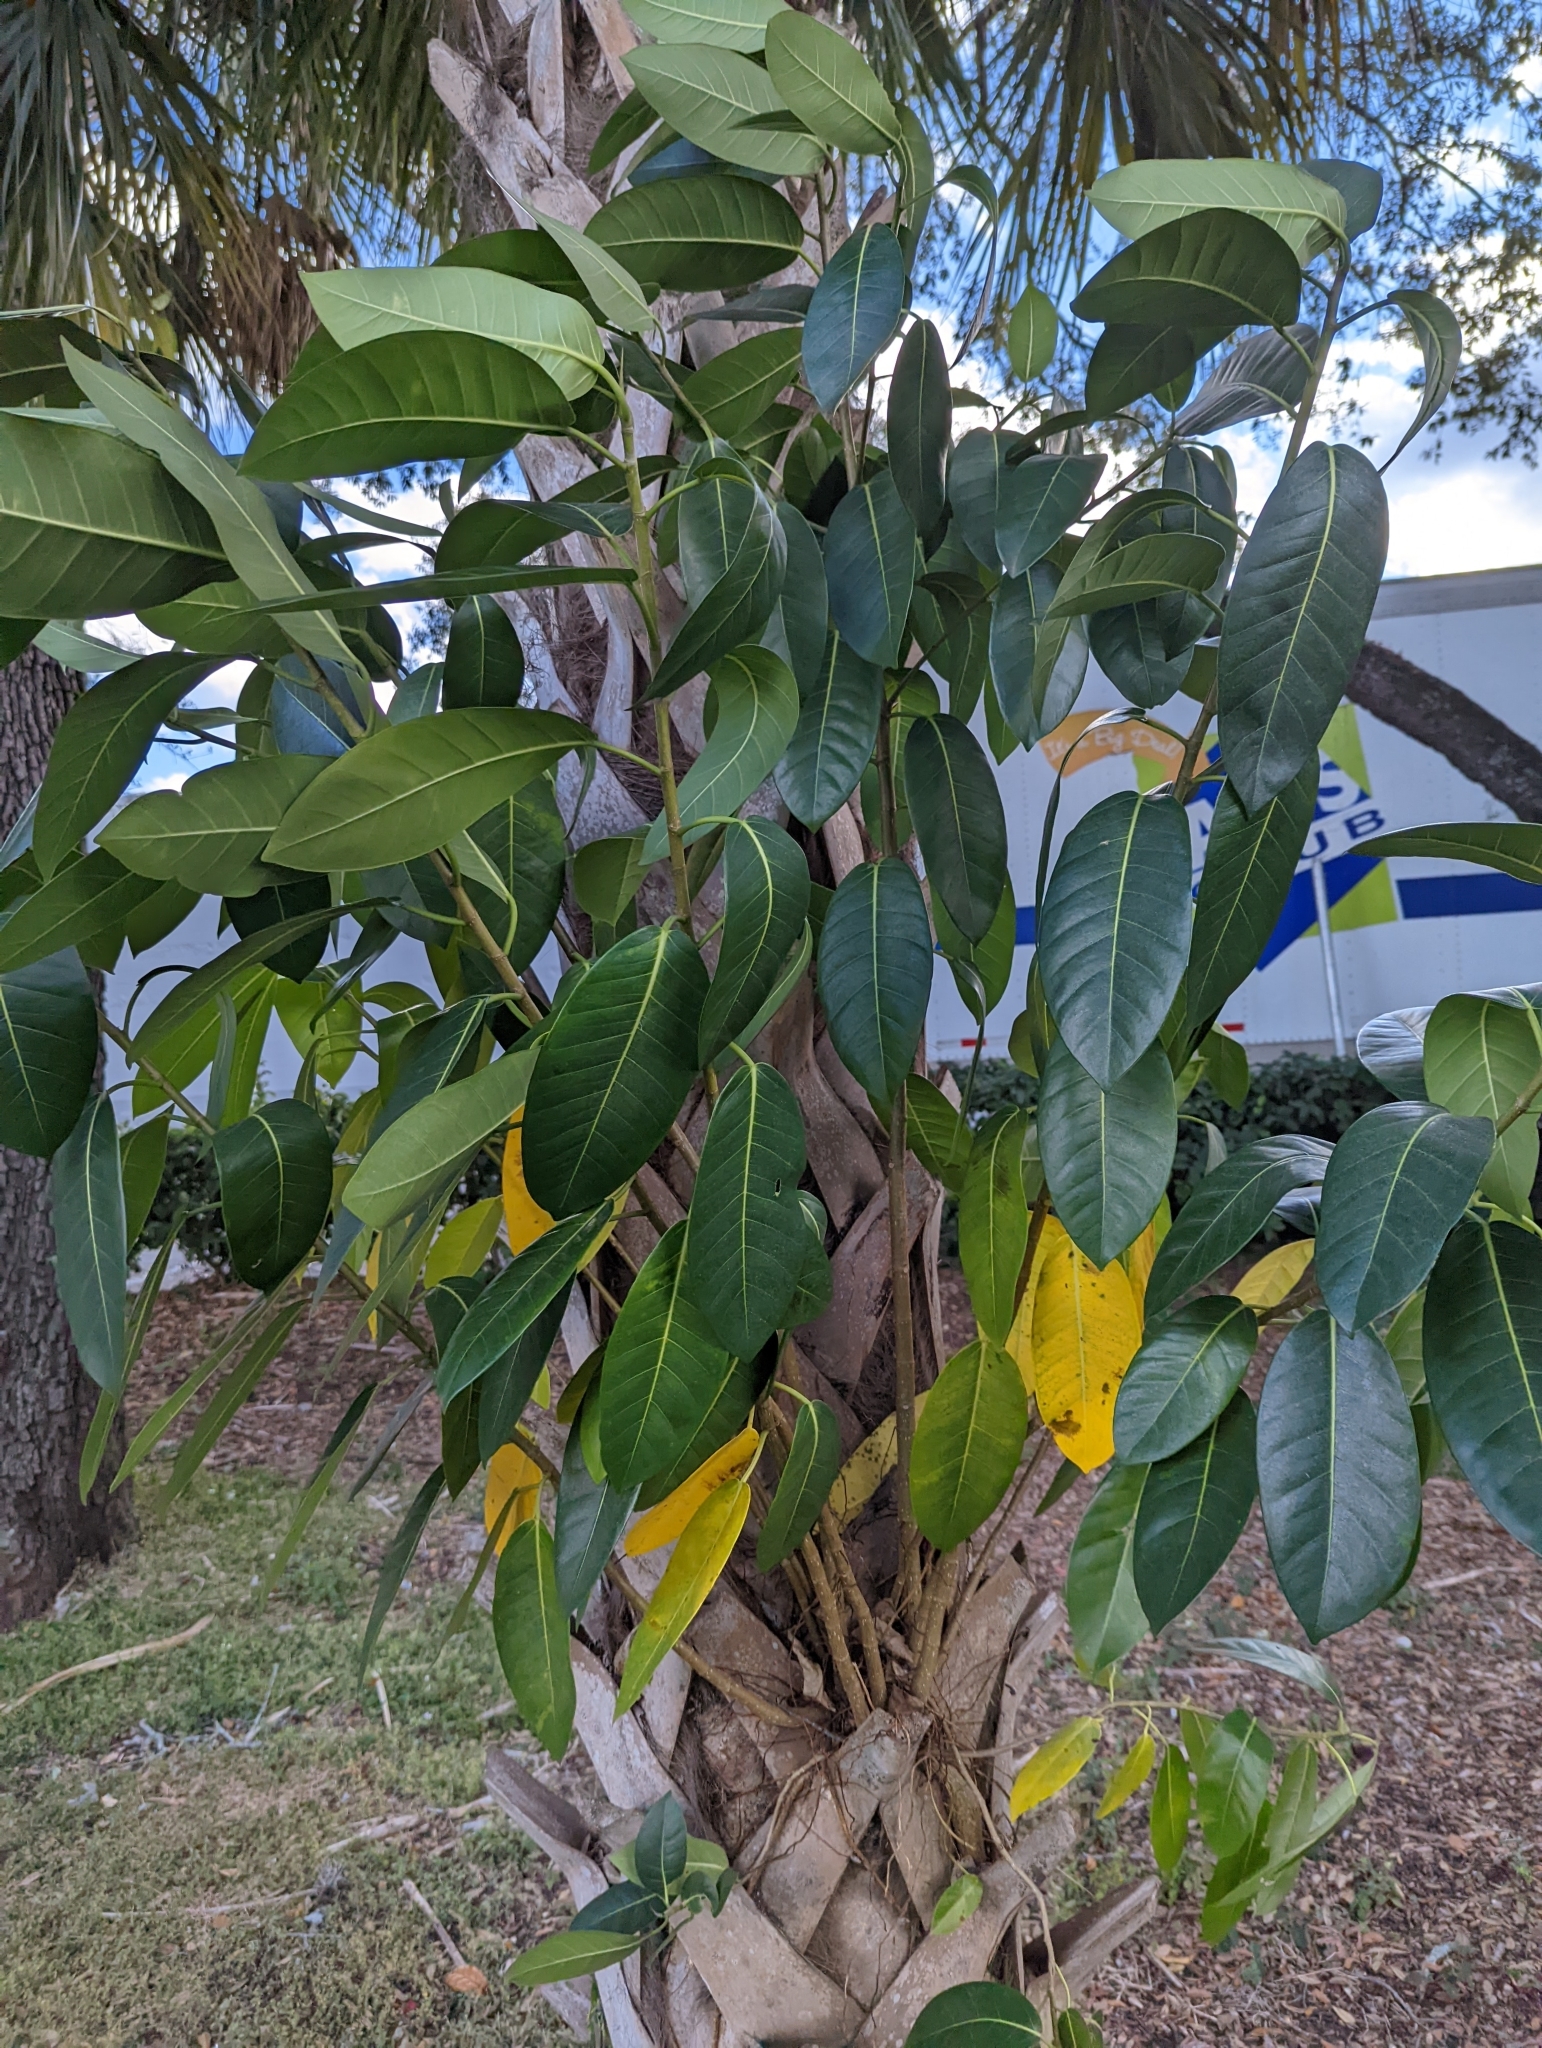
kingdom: Plantae
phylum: Tracheophyta
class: Magnoliopsida
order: Rosales
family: Moraceae
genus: Ficus
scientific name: Ficus aurea
